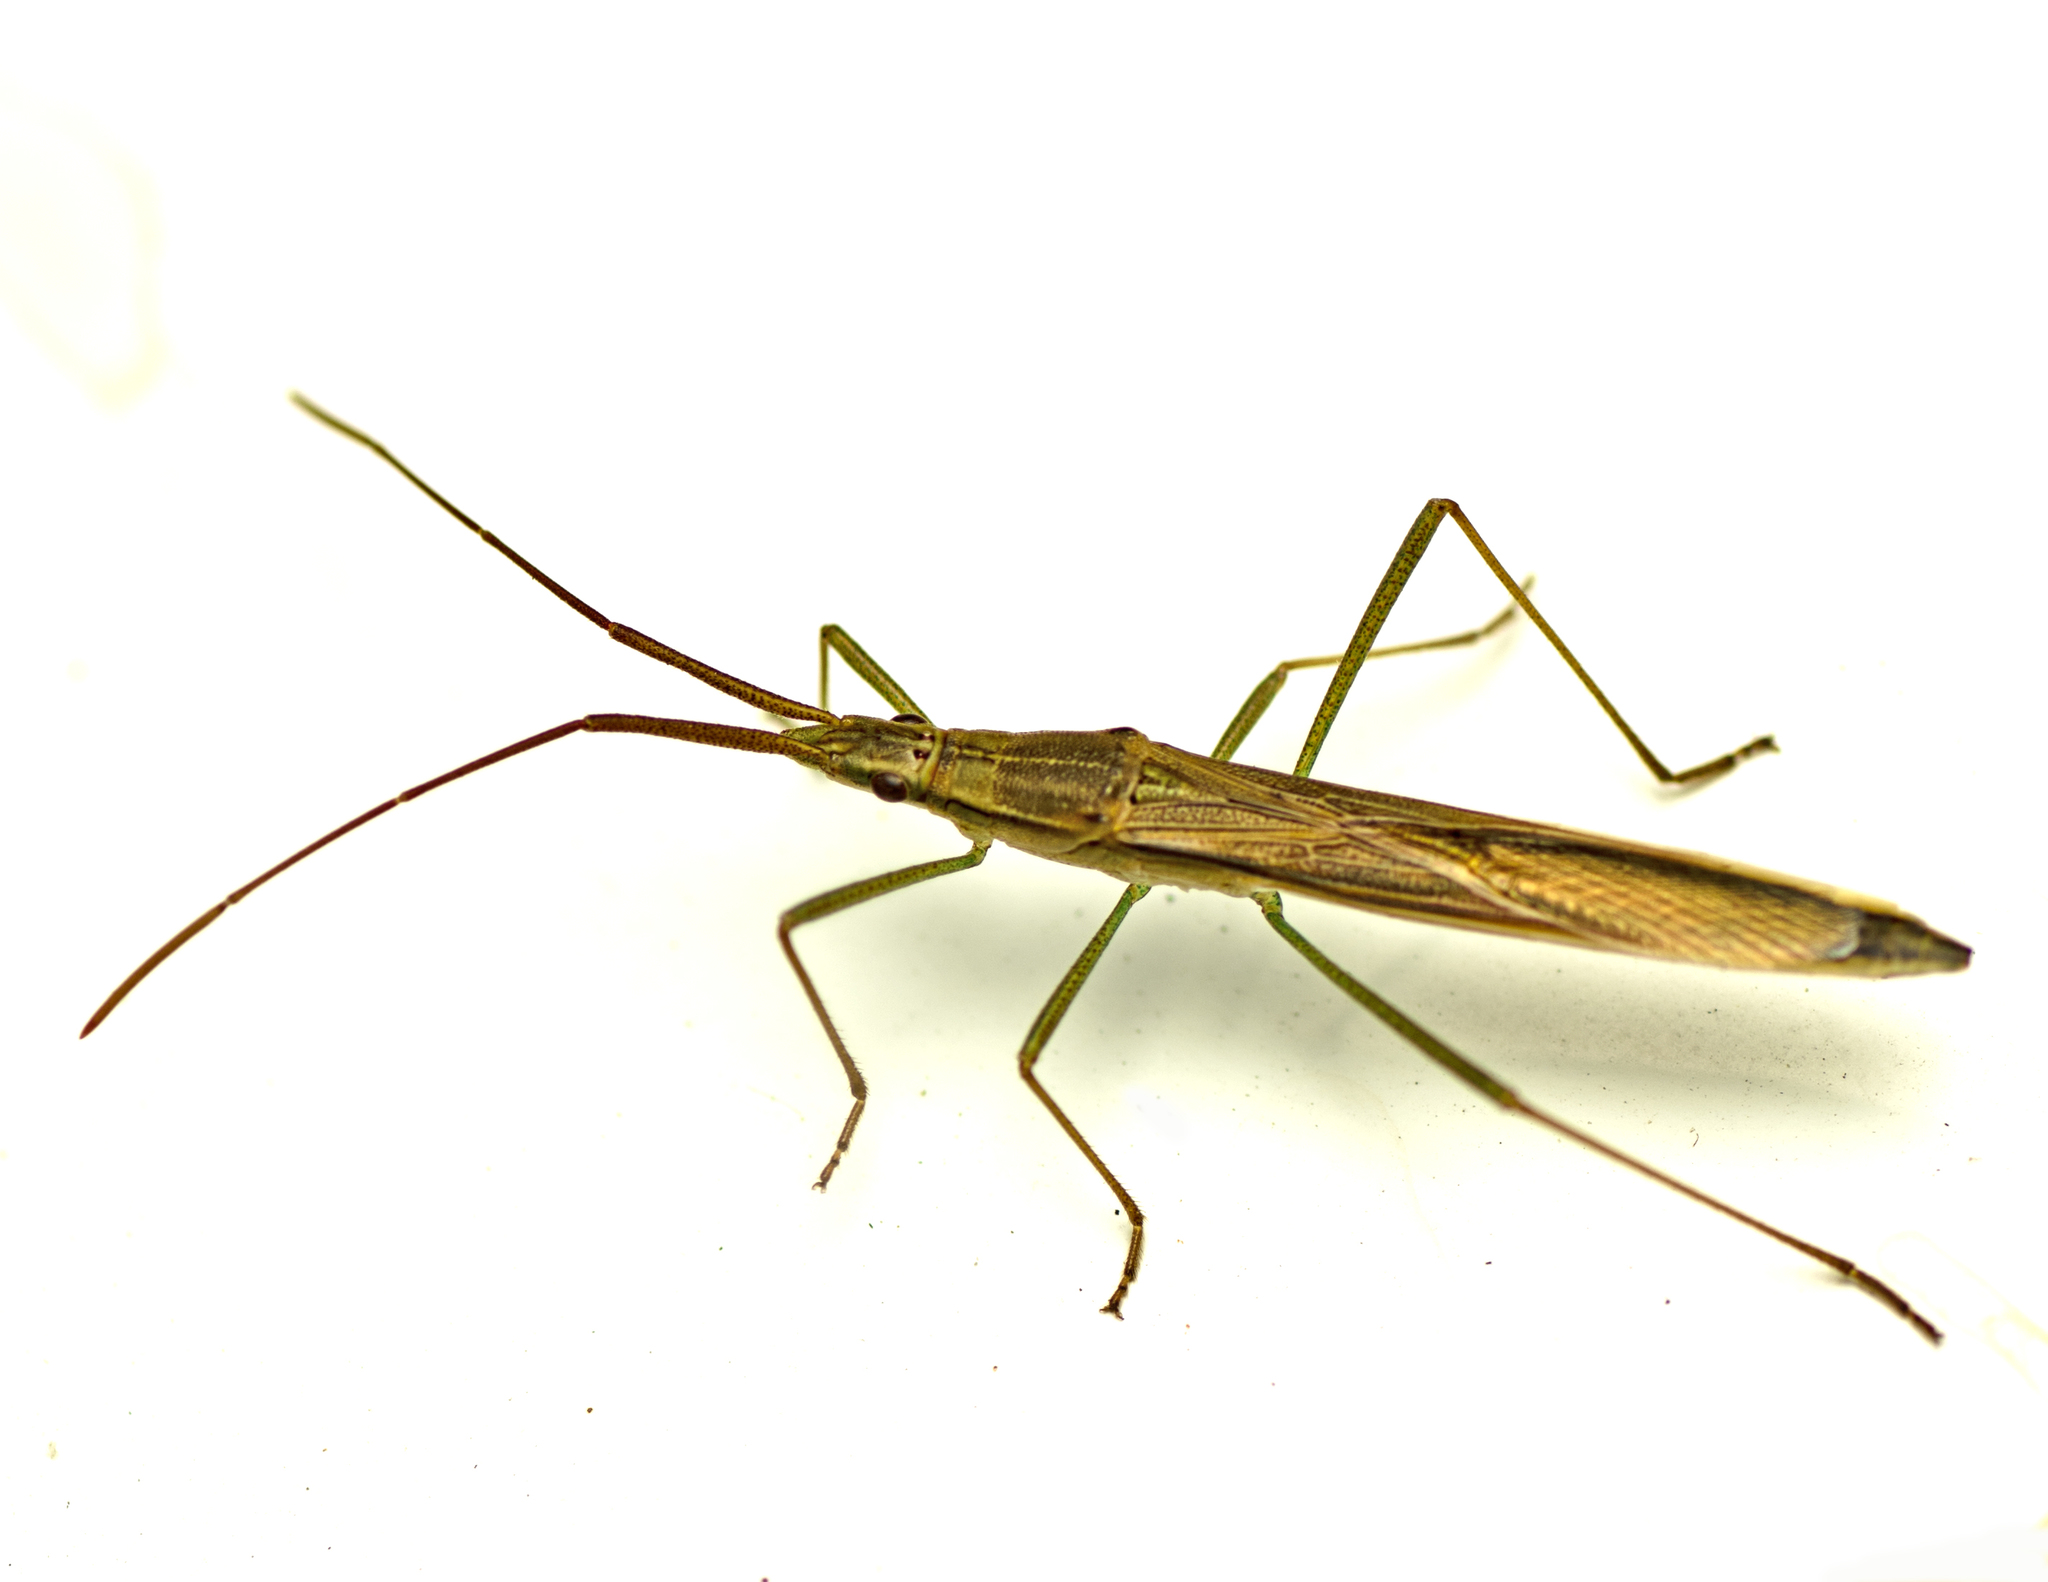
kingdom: Animalia
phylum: Arthropoda
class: Insecta
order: Hemiptera
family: Alydidae
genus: Mutusca
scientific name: Mutusca brevicornis
